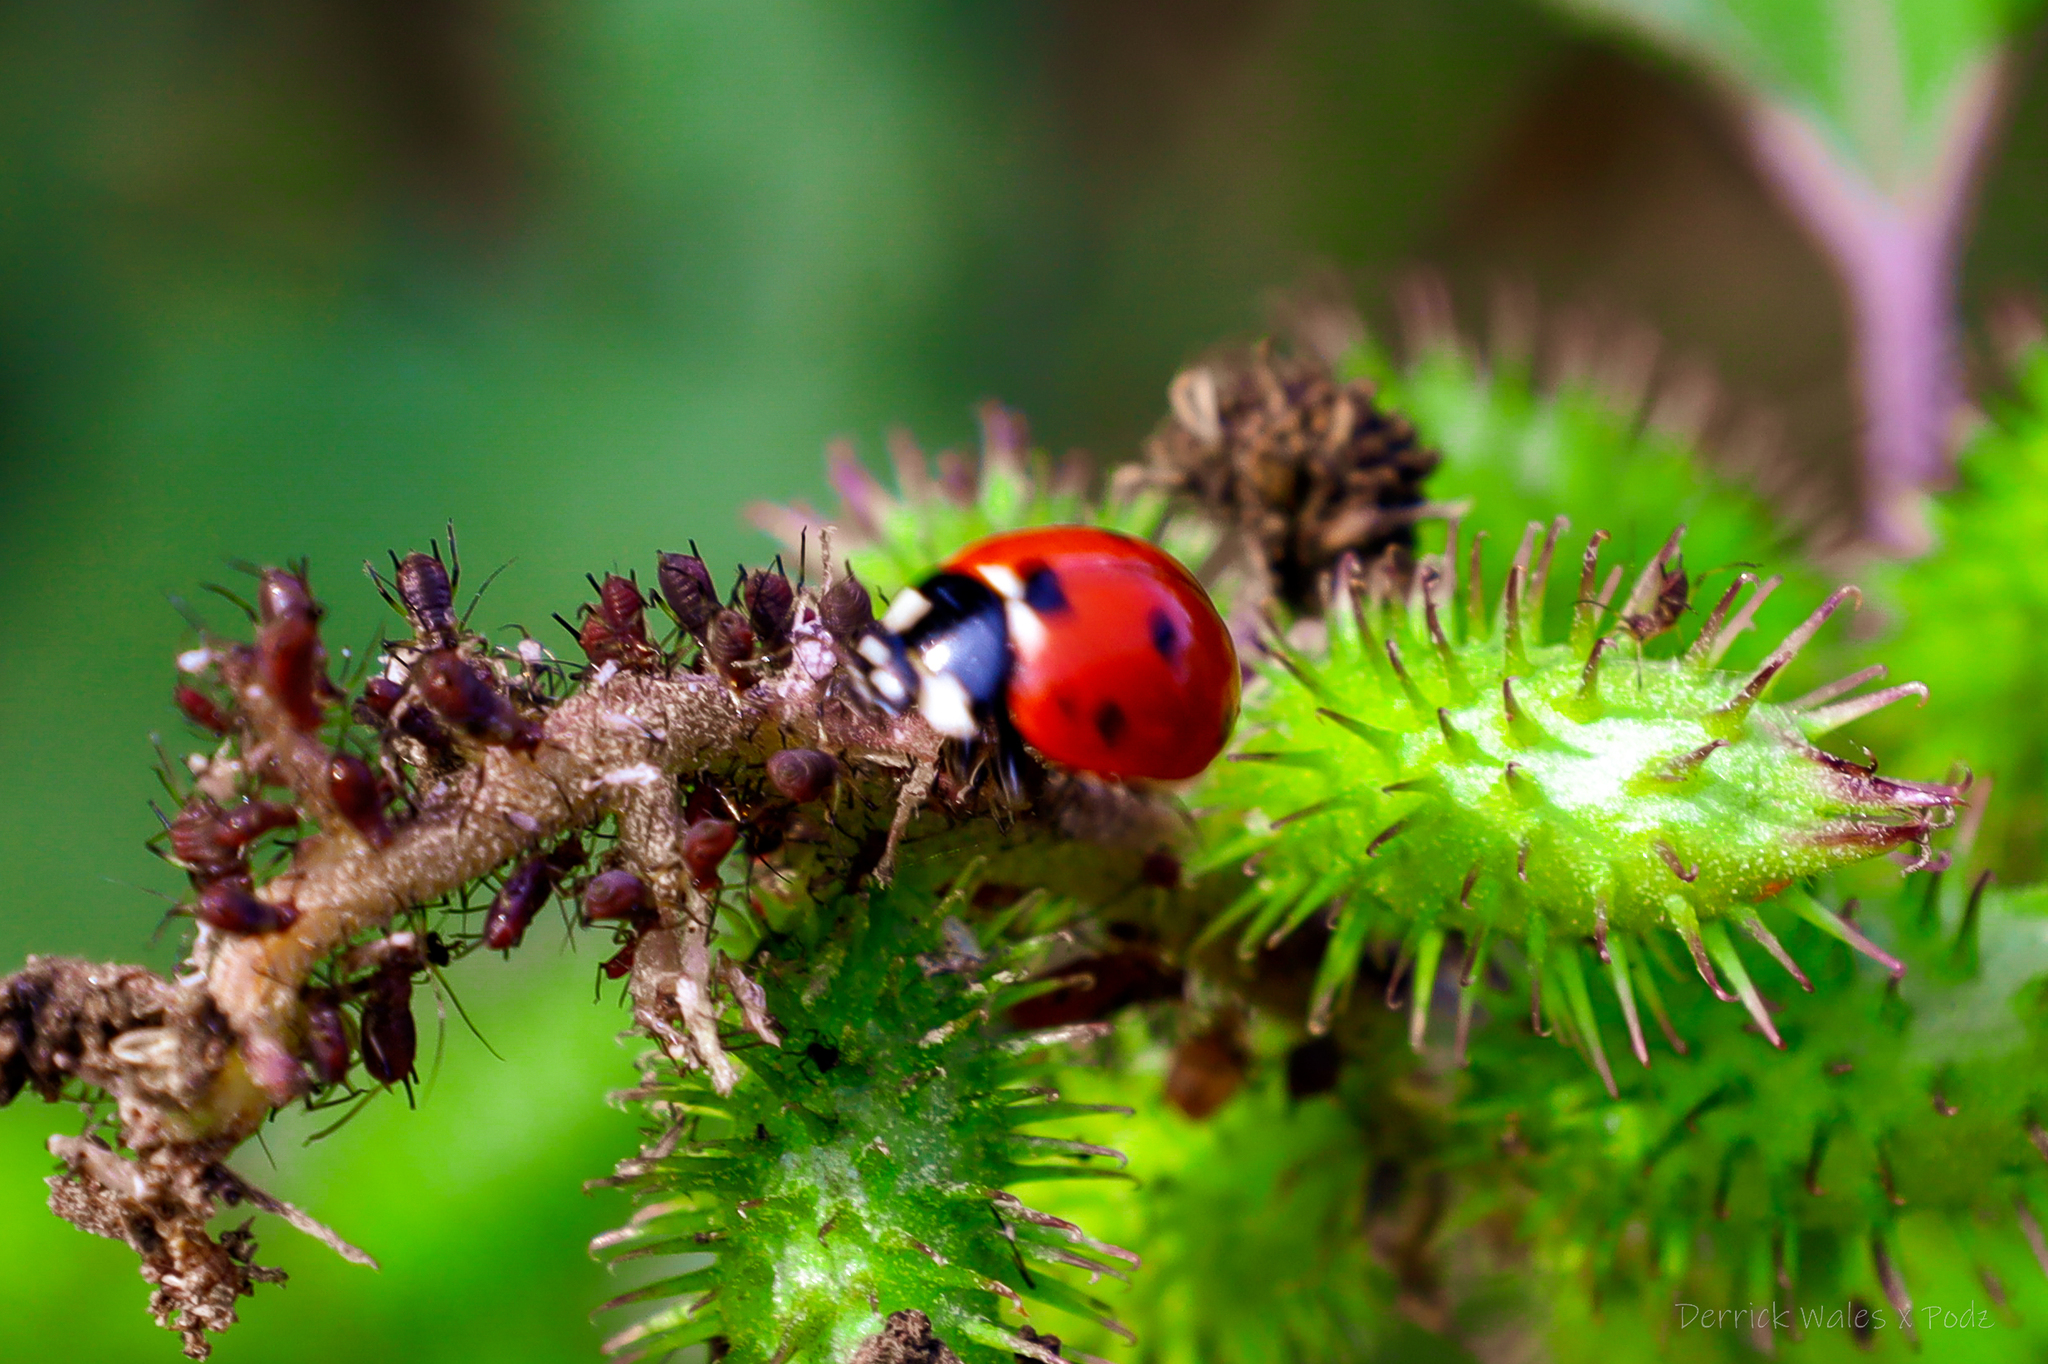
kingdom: Animalia
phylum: Arthropoda
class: Insecta
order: Coleoptera
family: Coccinellidae
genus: Coccinella
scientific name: Coccinella septempunctata
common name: Sevenspotted lady beetle
